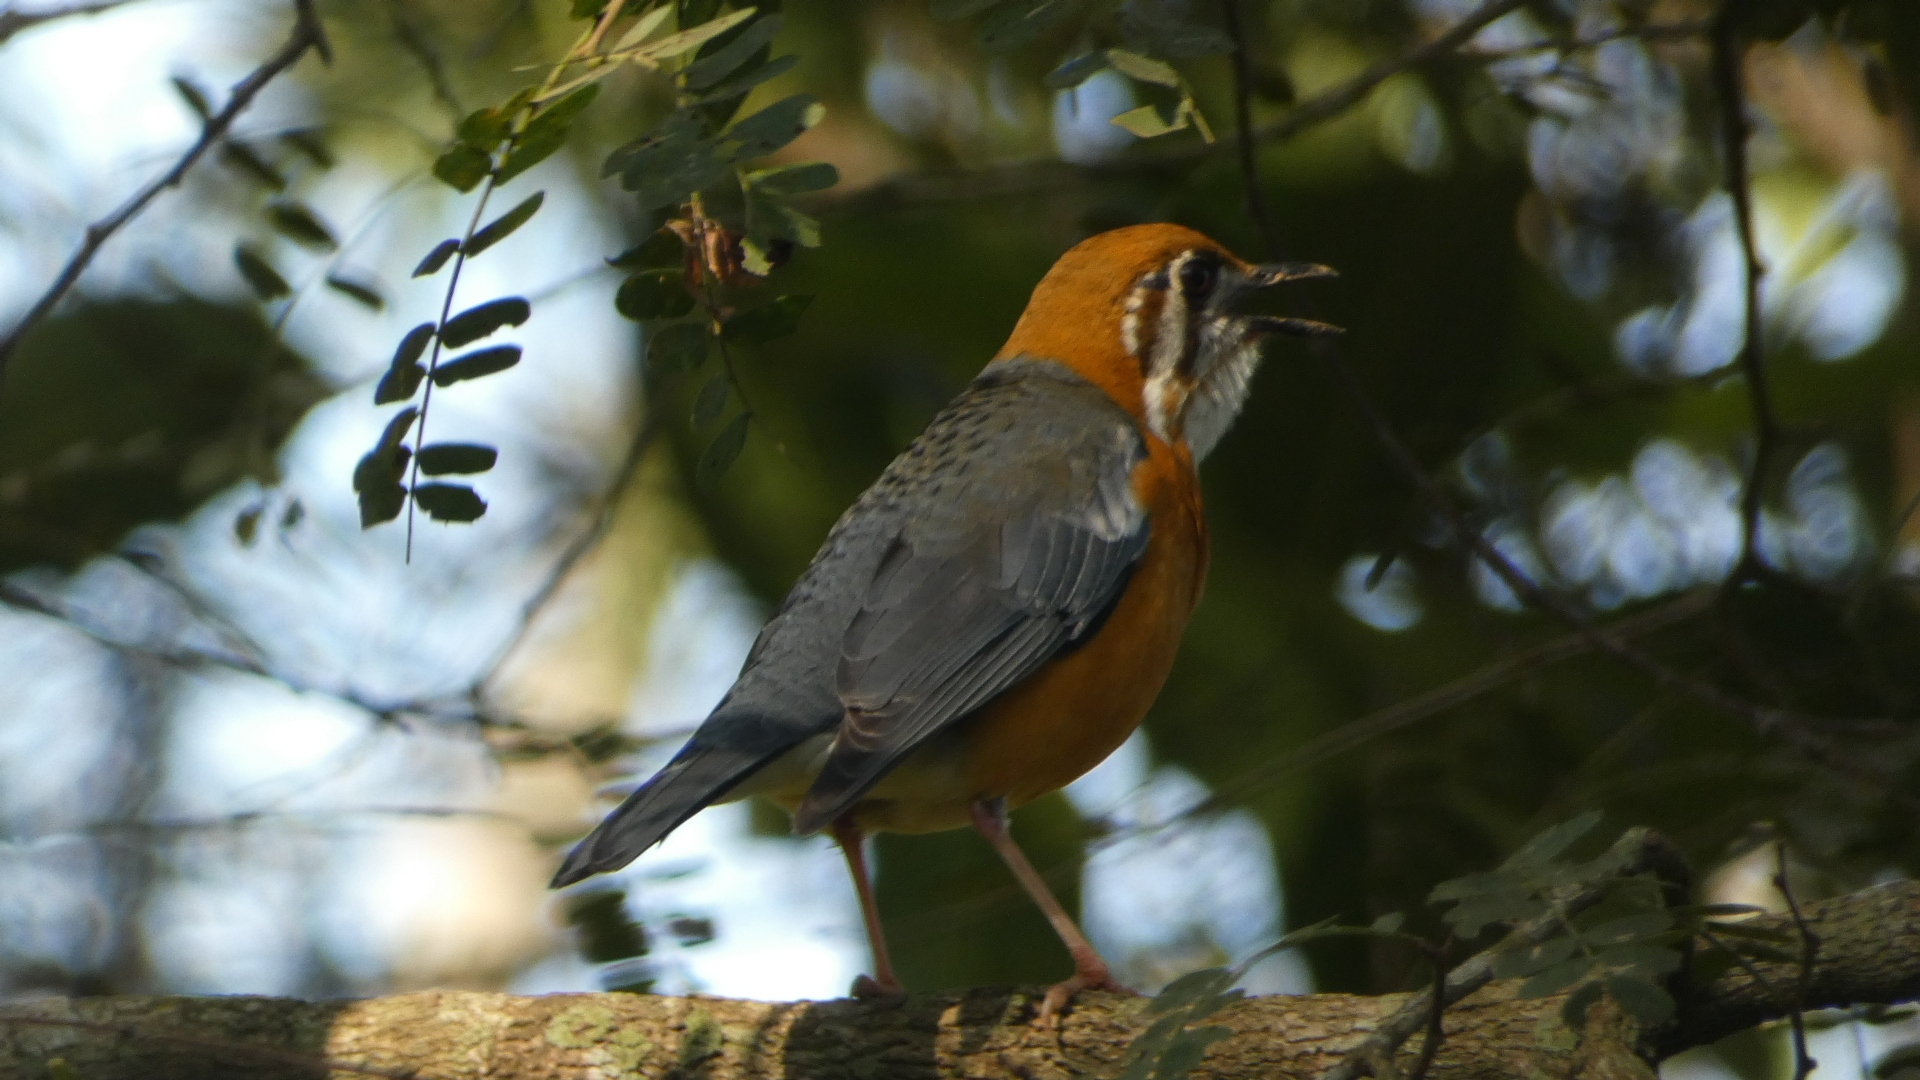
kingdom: Animalia
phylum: Chordata
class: Aves
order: Passeriformes
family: Turdidae
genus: Geokichla
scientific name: Geokichla citrina
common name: Orange-headed thrush
